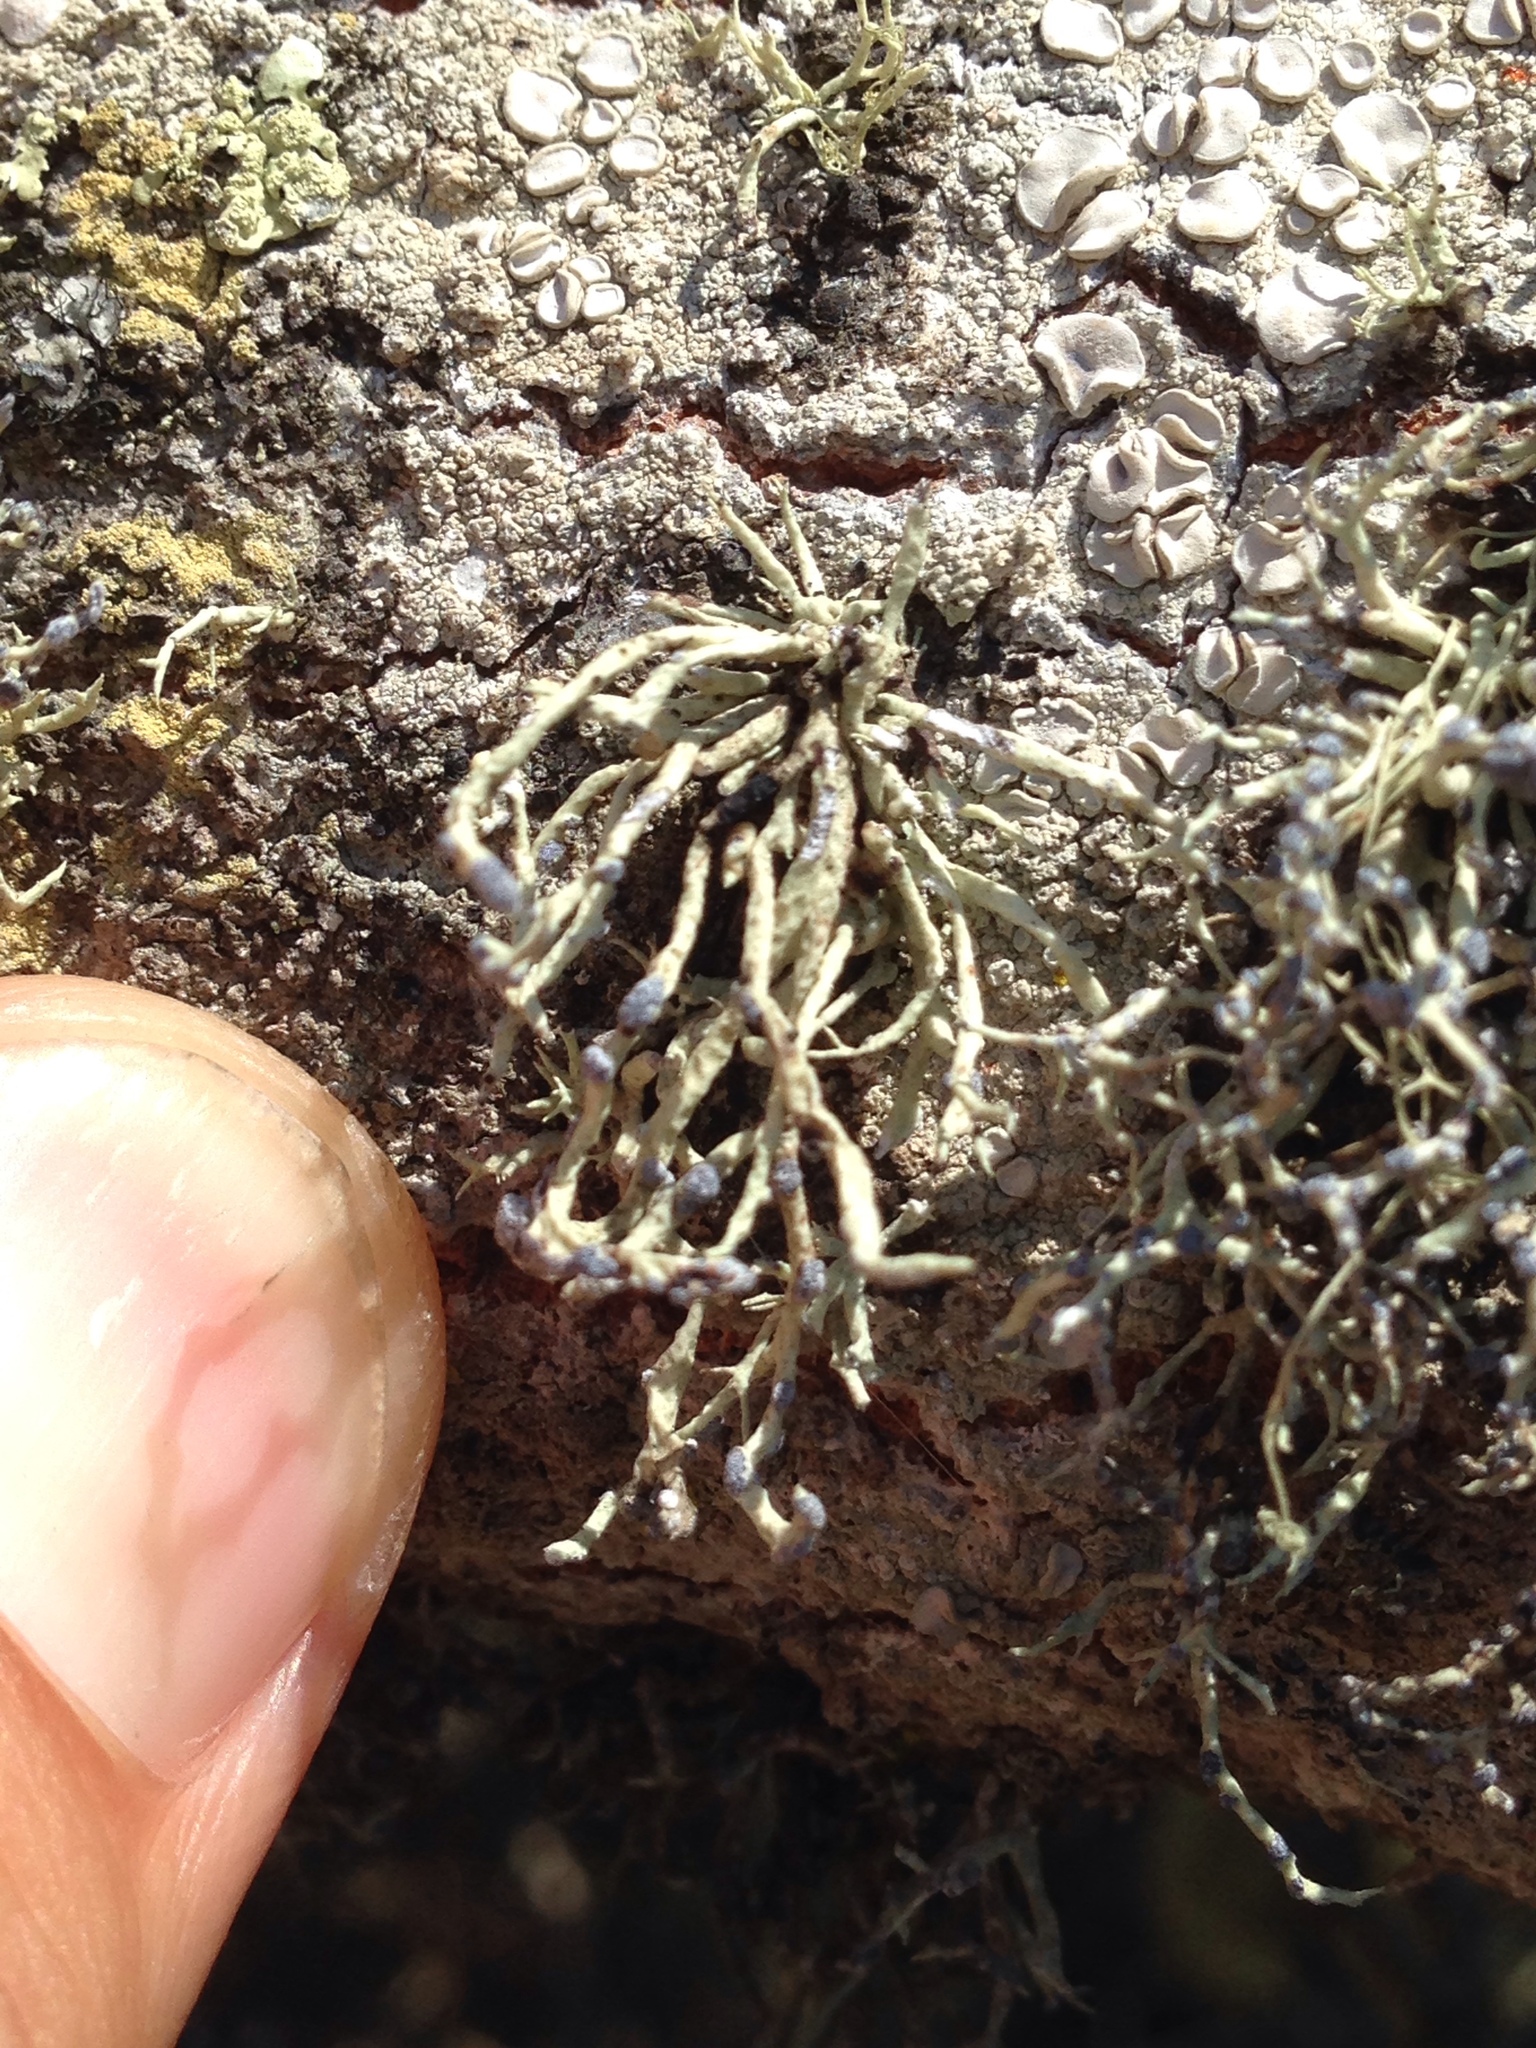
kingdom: Fungi
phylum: Ascomycota
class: Lecanoromycetes
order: Lecanorales
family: Ramalinaceae
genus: Niebla
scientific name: Niebla cephalota
